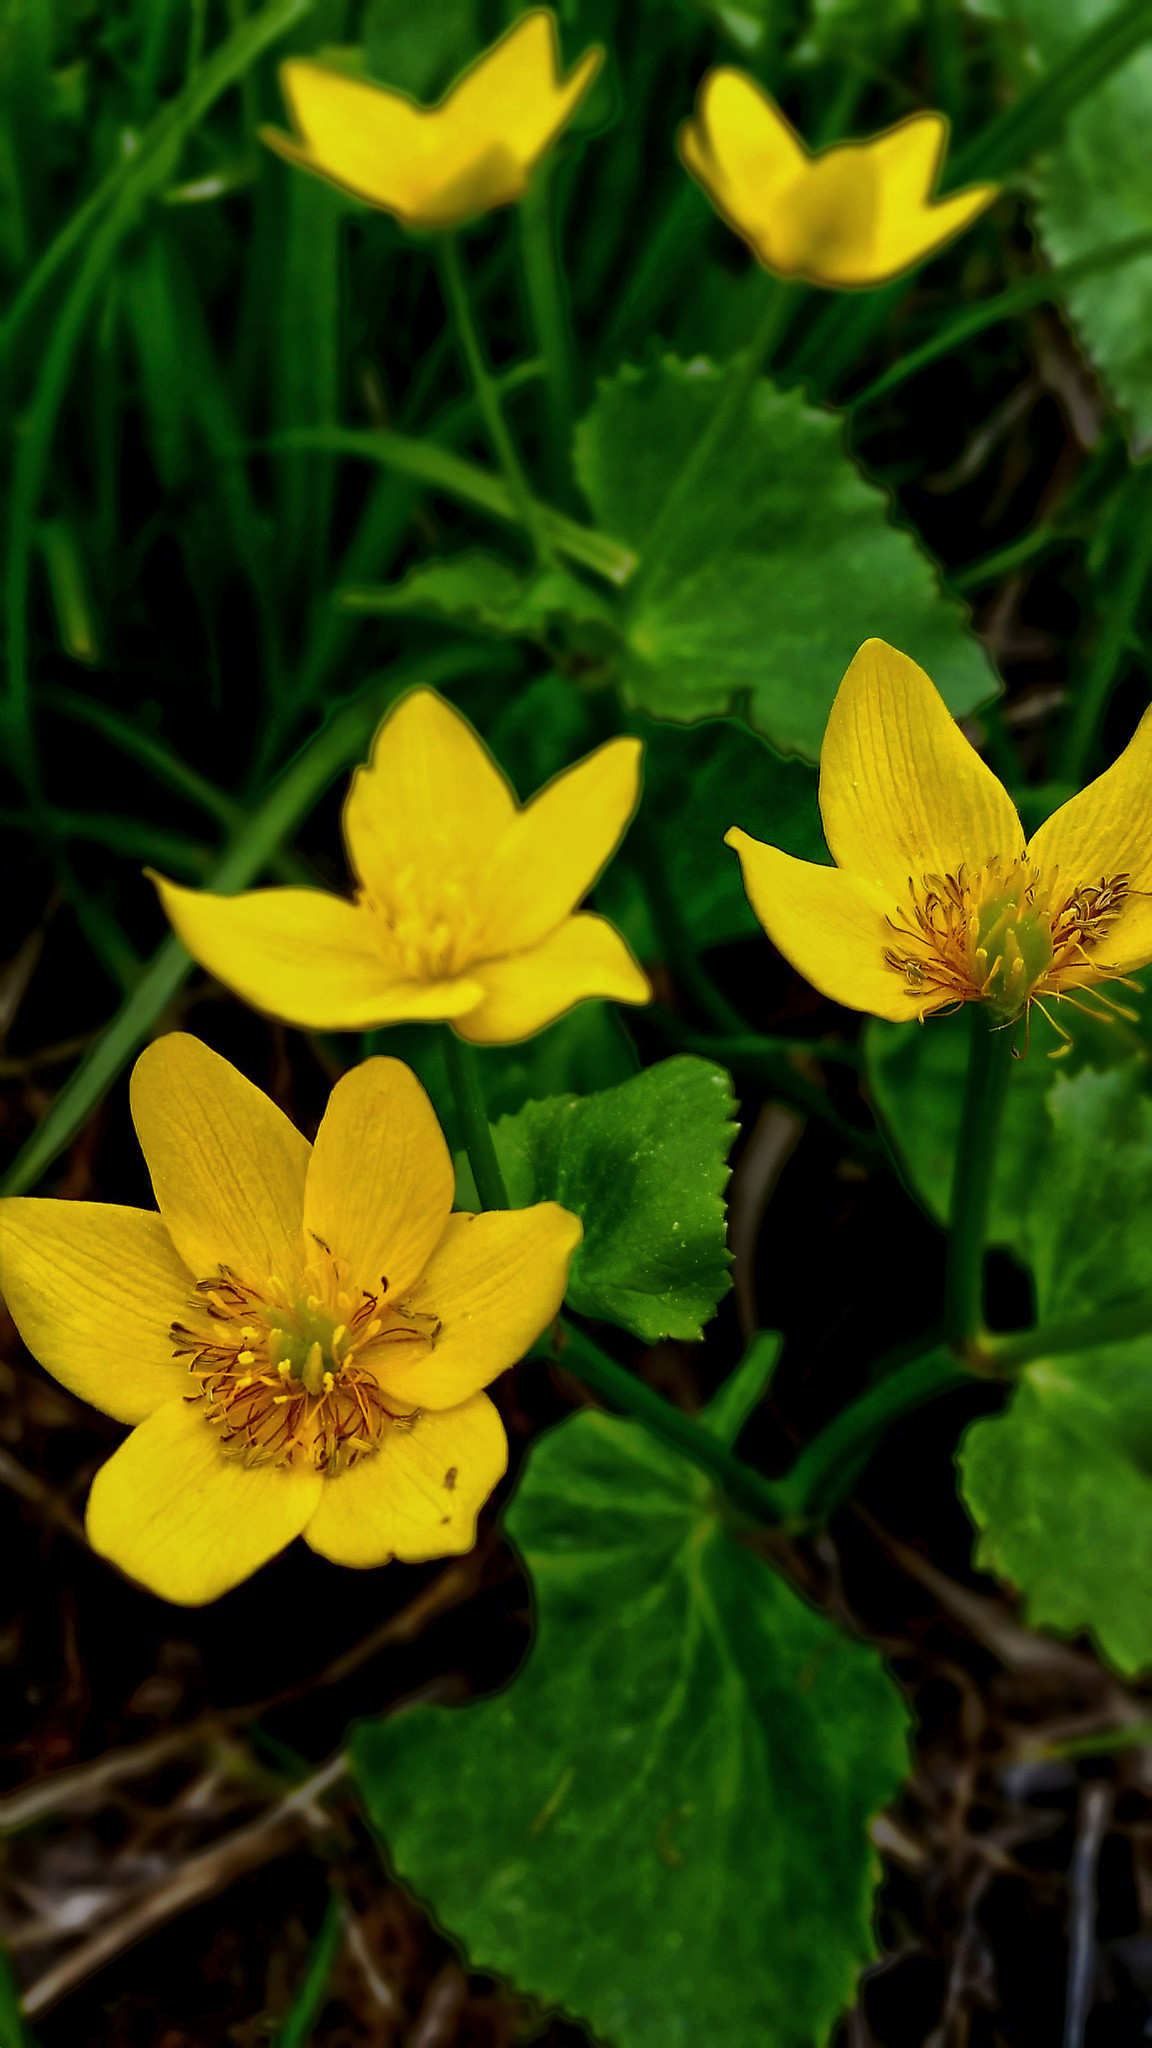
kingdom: Plantae
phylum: Tracheophyta
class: Magnoliopsida
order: Ranunculales
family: Ranunculaceae
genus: Caltha
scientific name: Caltha palustris
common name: Marsh marigold
